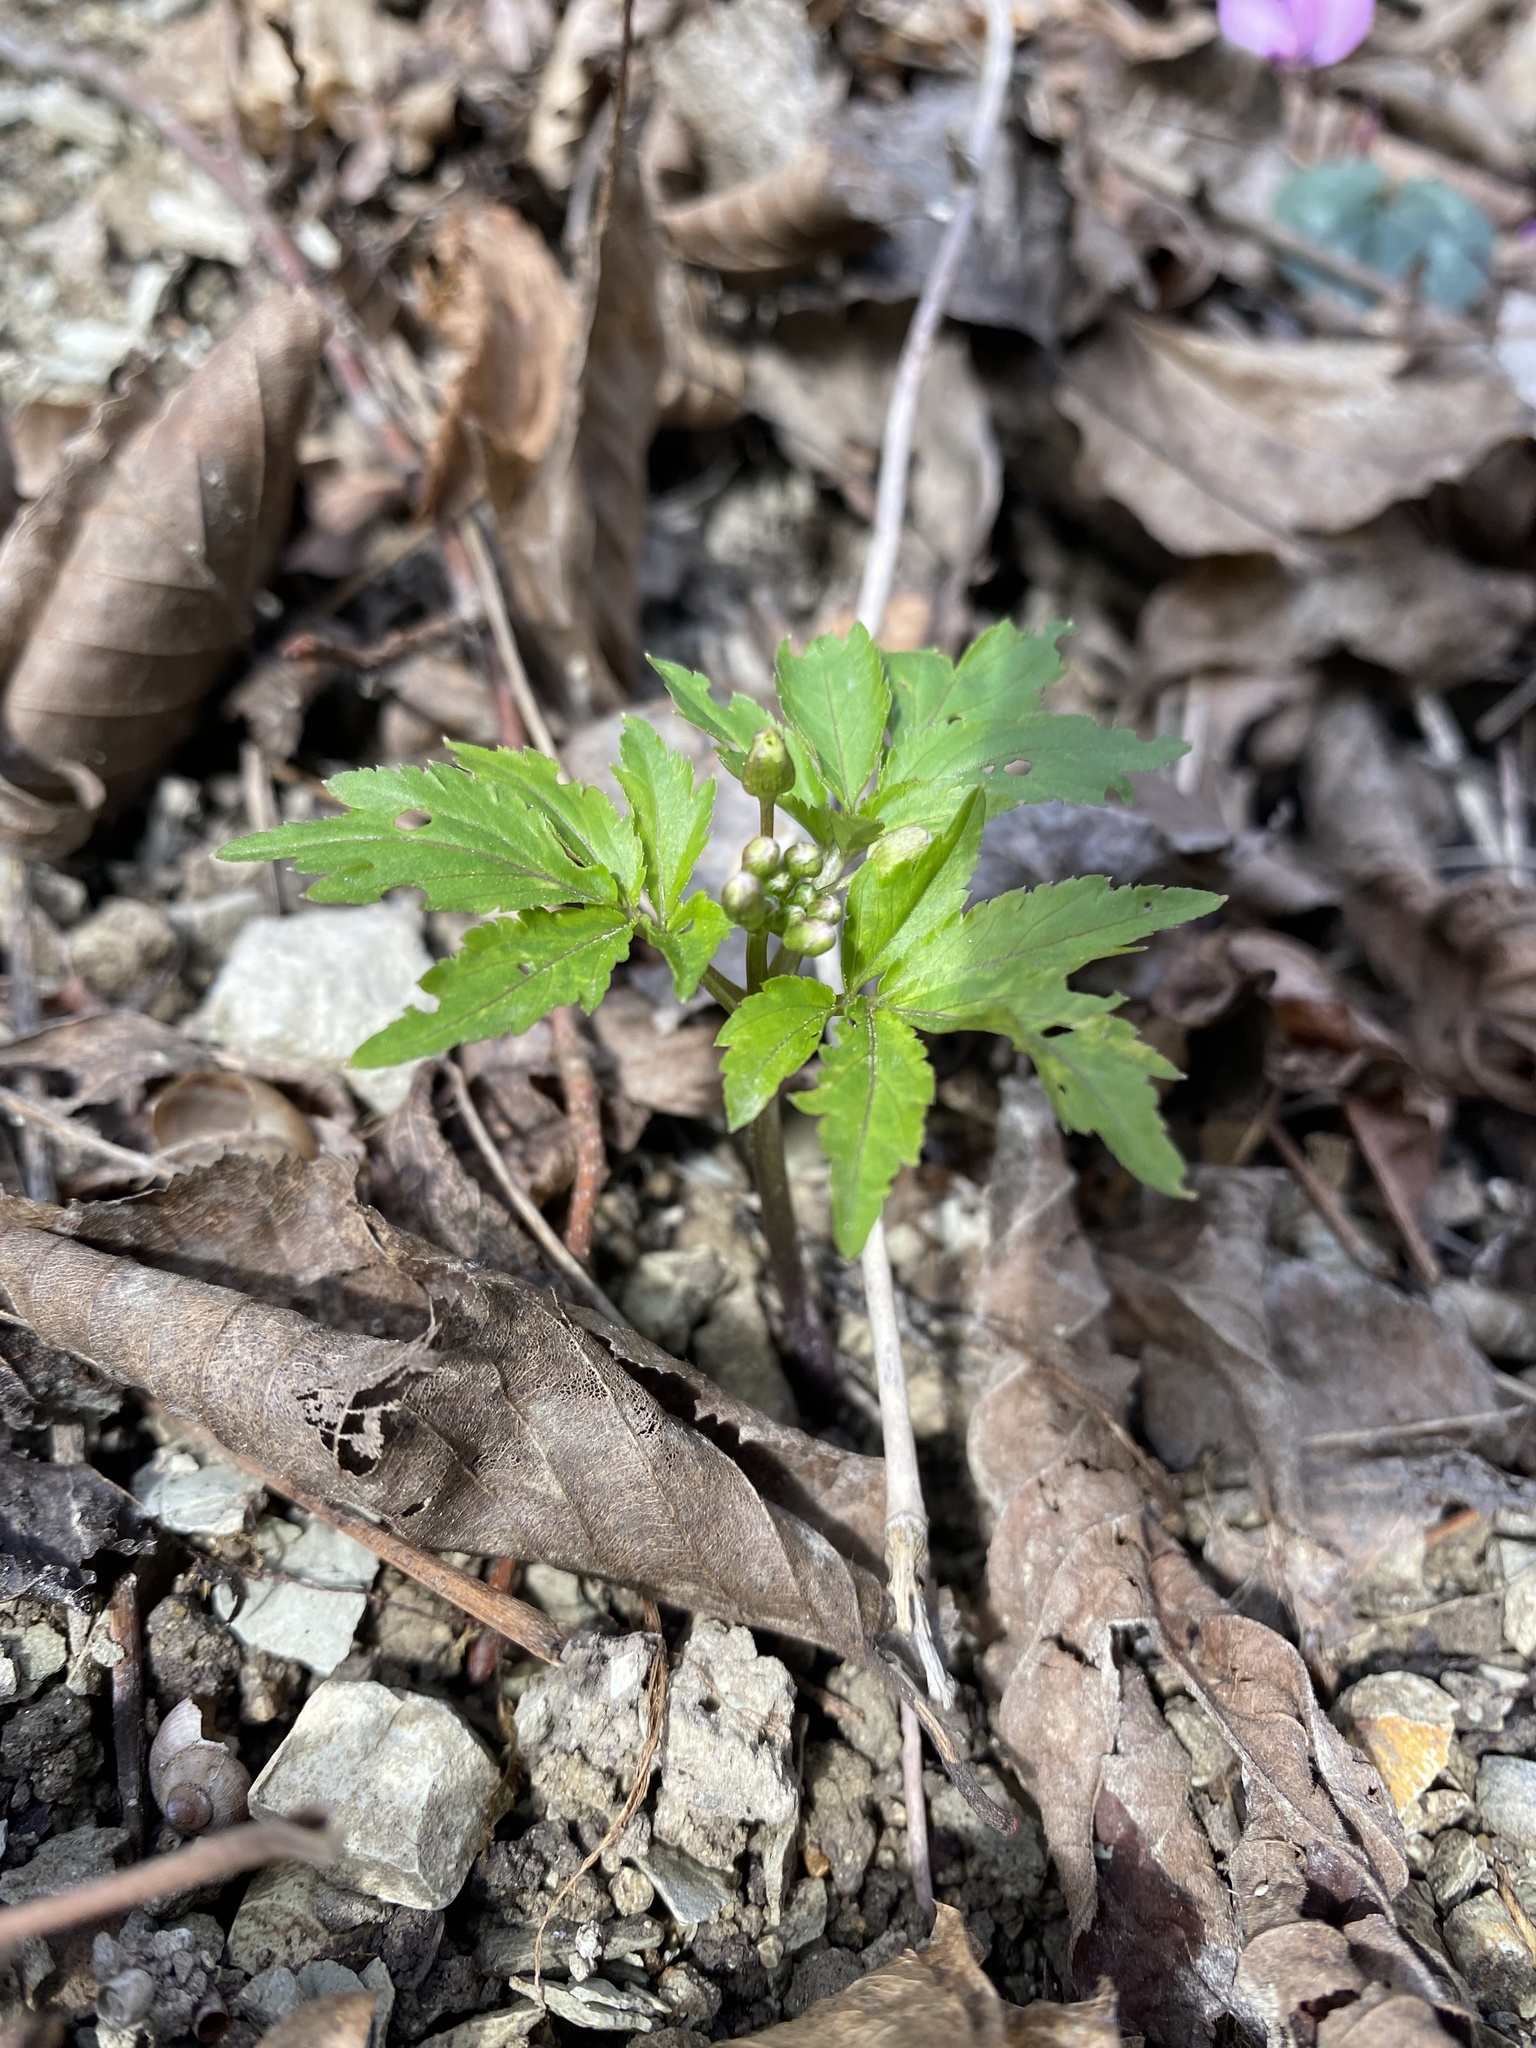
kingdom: Plantae
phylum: Tracheophyta
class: Magnoliopsida
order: Brassicales
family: Brassicaceae
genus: Cardamine
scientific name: Cardamine quinquefolia
